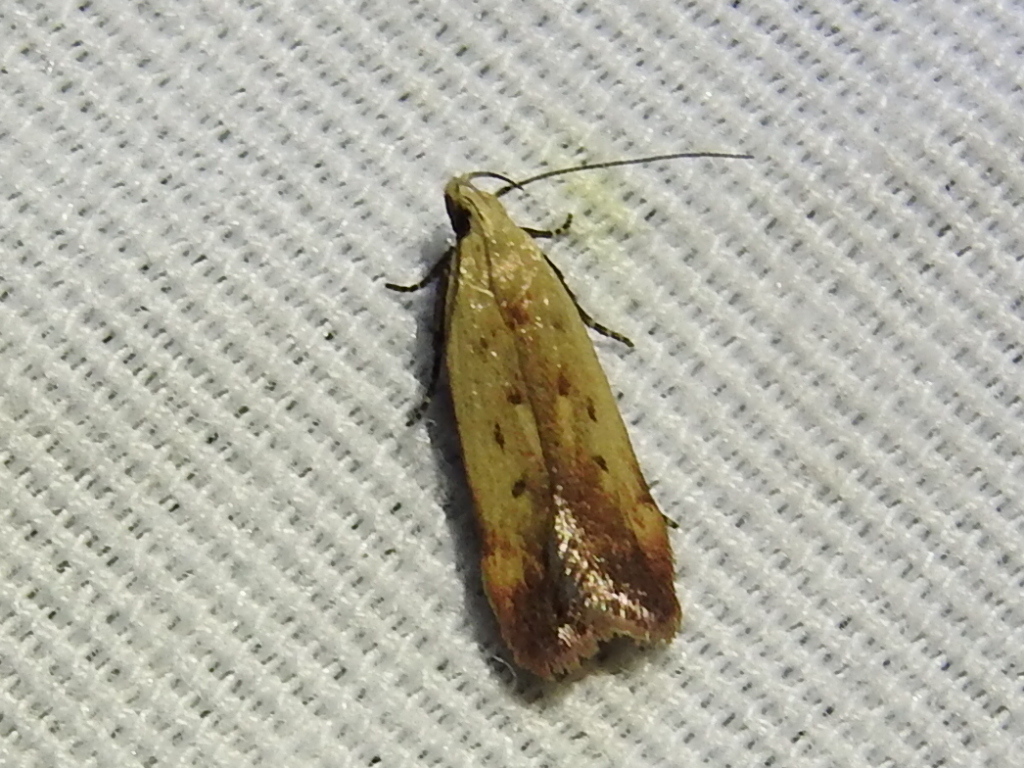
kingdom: Animalia
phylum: Arthropoda
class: Insecta
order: Lepidoptera
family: Gelechiidae
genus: Anacampsis
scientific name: Anacampsis fullonella
